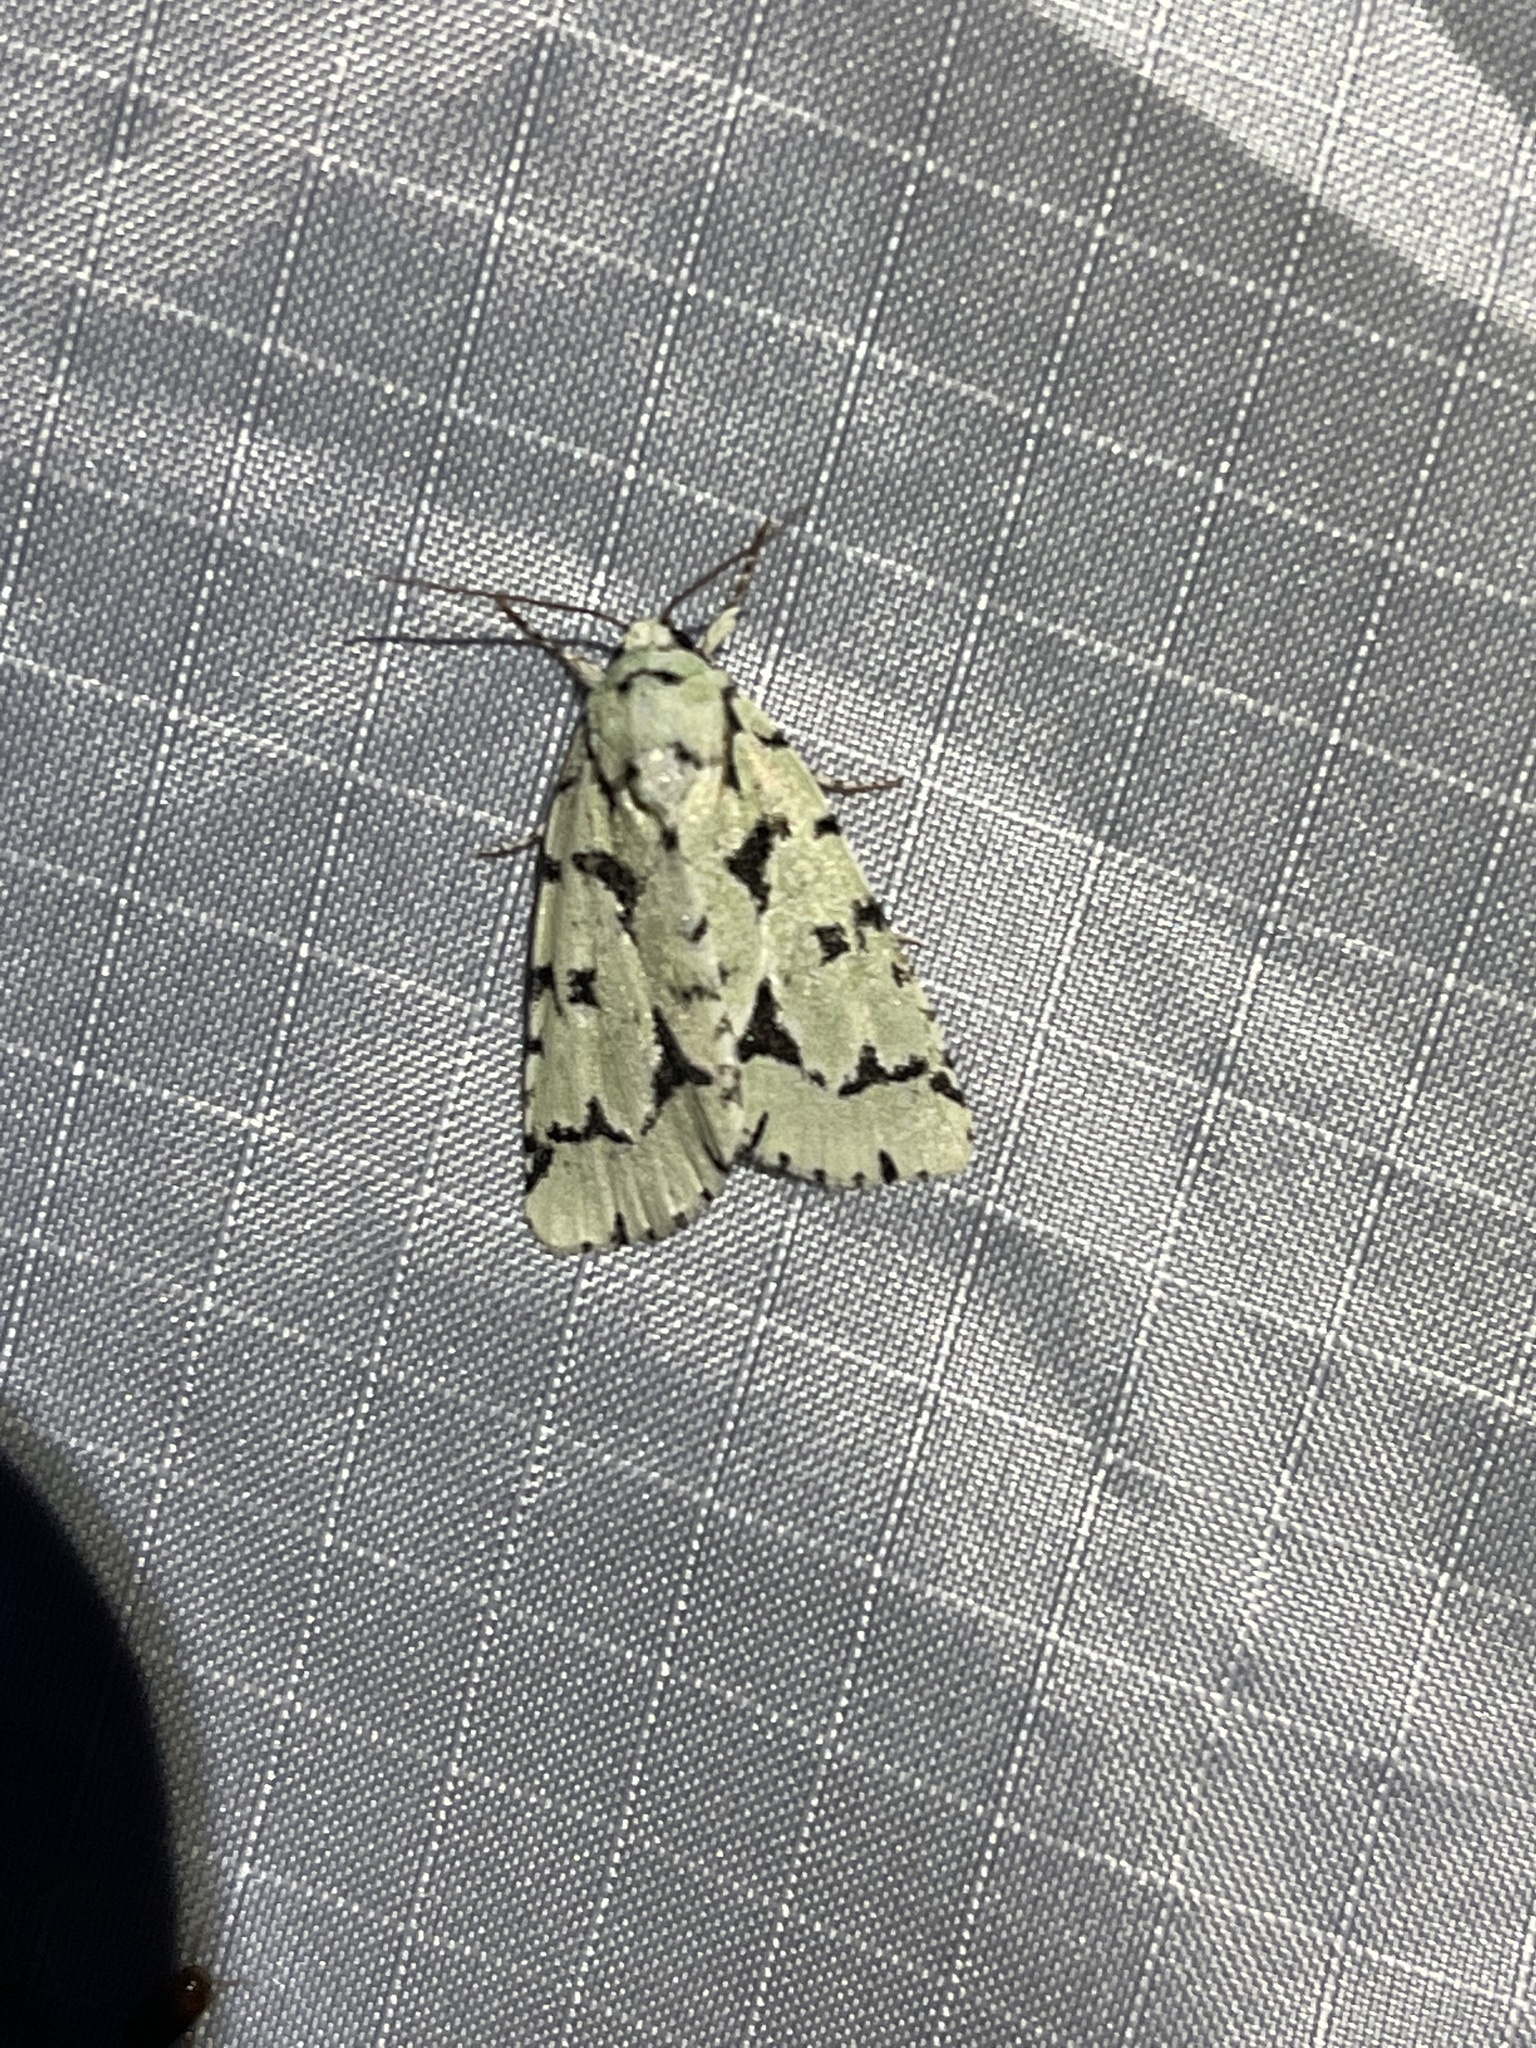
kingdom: Animalia
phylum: Arthropoda
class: Insecta
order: Lepidoptera
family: Noctuidae
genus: Acronicta
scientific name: Acronicta fallax
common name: Green marvel
